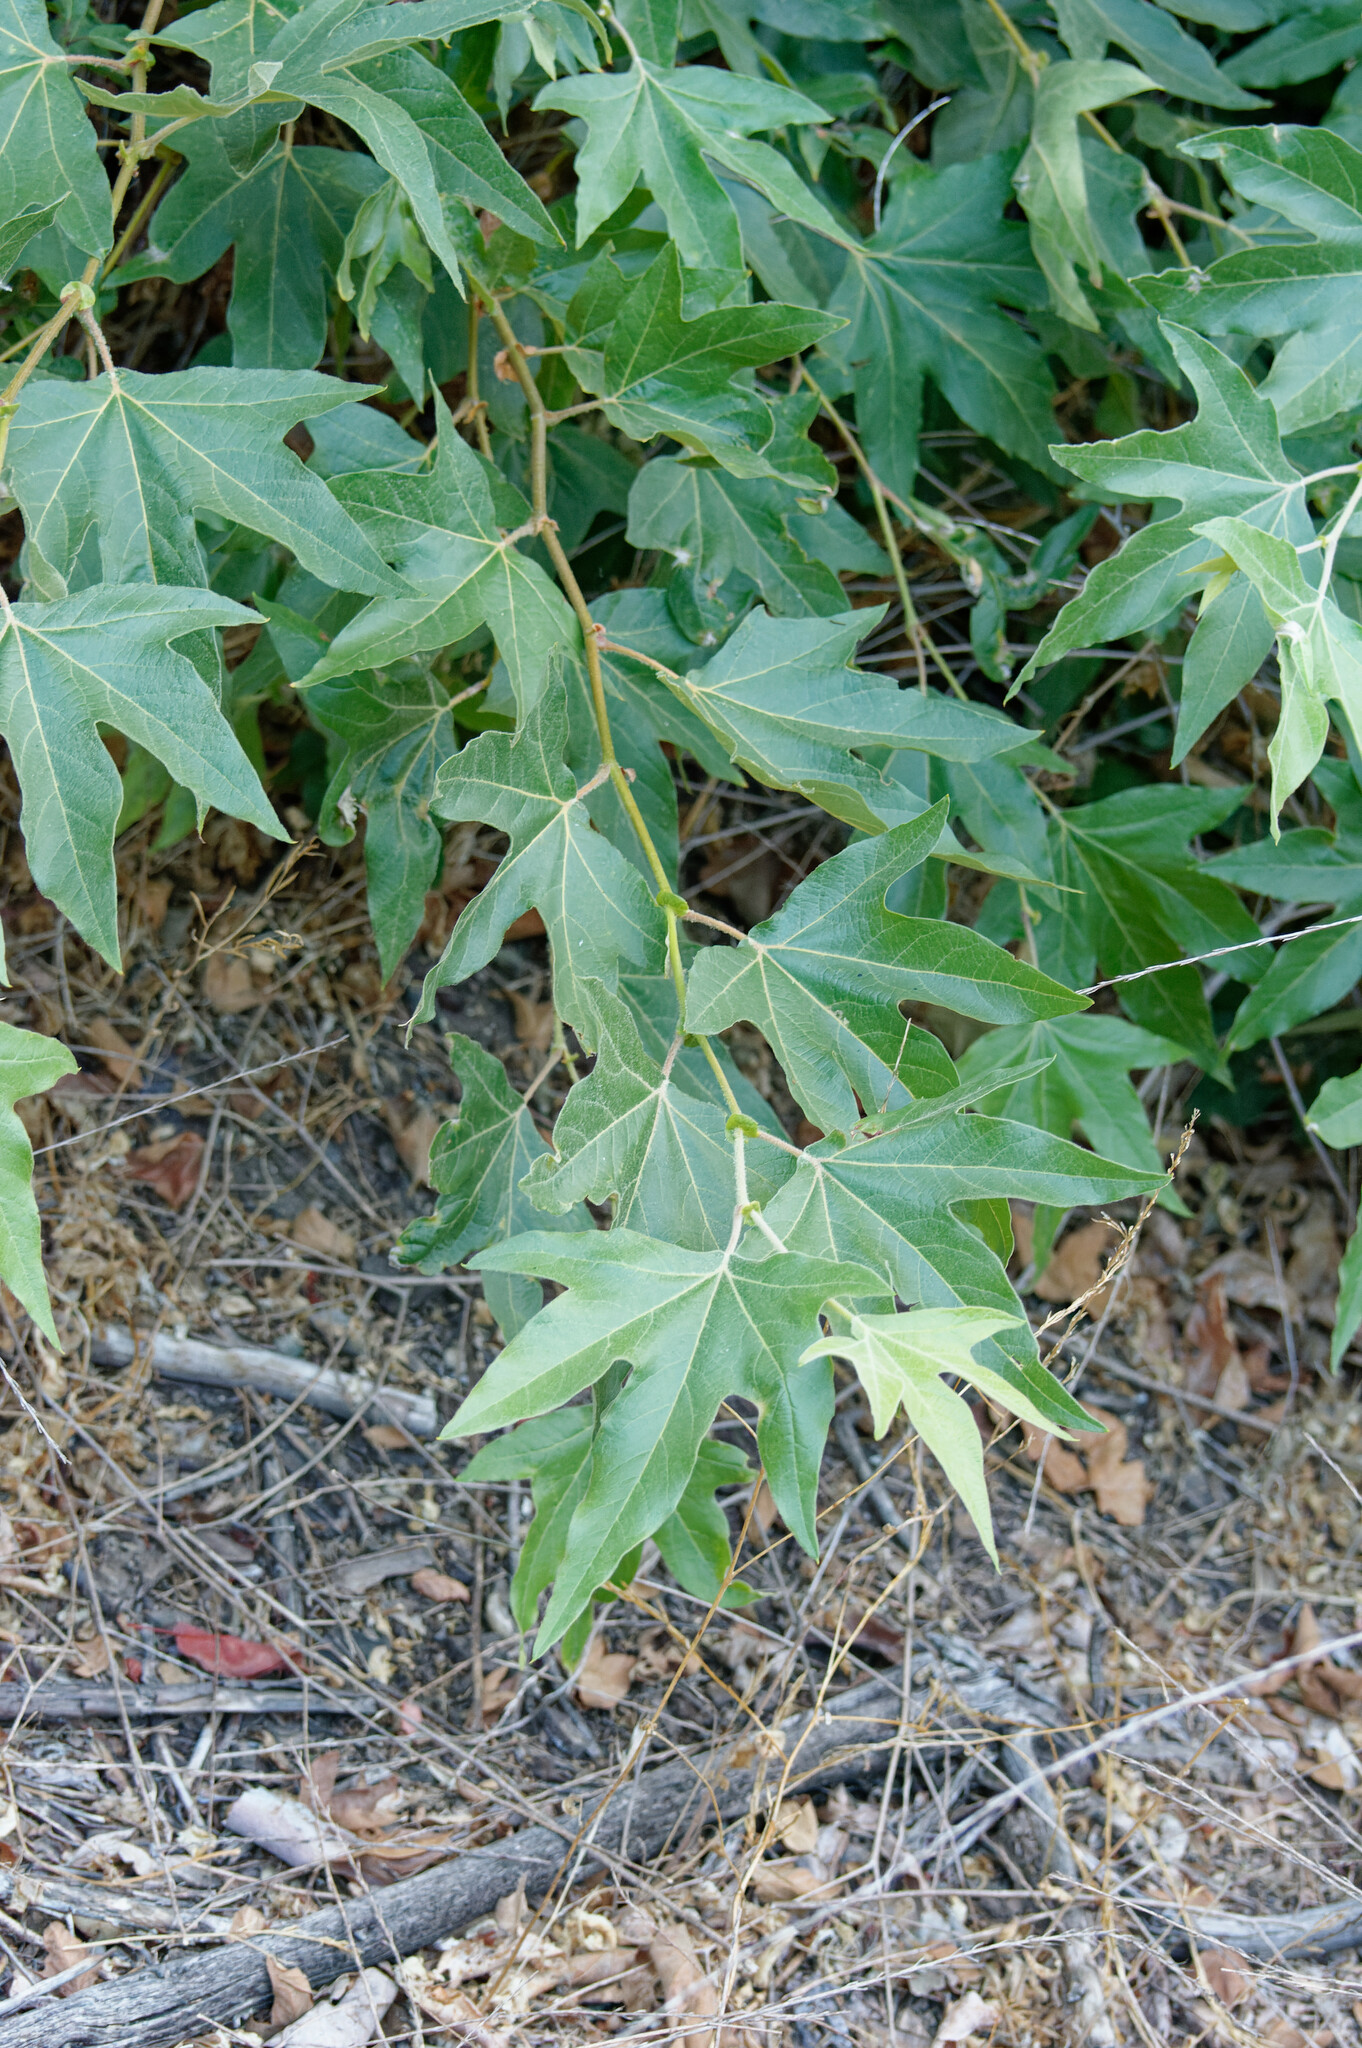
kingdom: Plantae
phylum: Tracheophyta
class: Magnoliopsida
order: Proteales
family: Platanaceae
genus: Platanus
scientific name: Platanus racemosa
